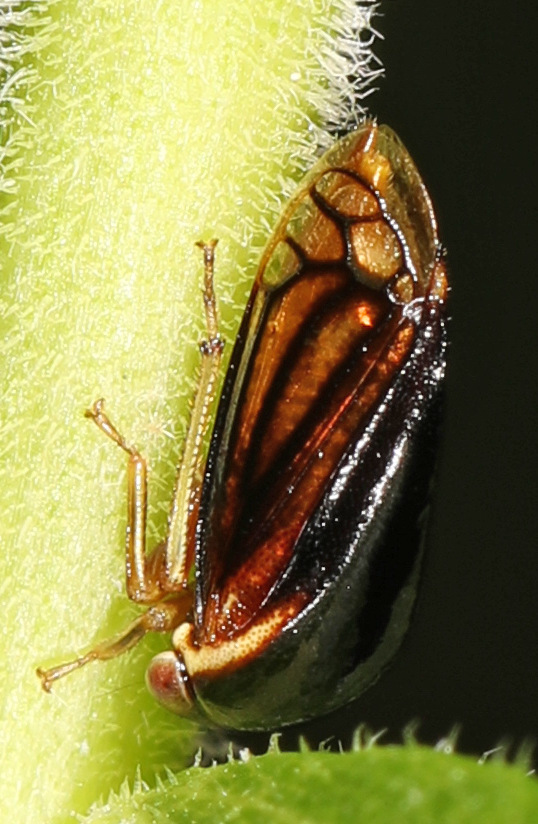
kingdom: Animalia
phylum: Arthropoda
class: Insecta
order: Hemiptera
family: Membracidae
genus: Acutalis
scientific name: Acutalis tartarea
